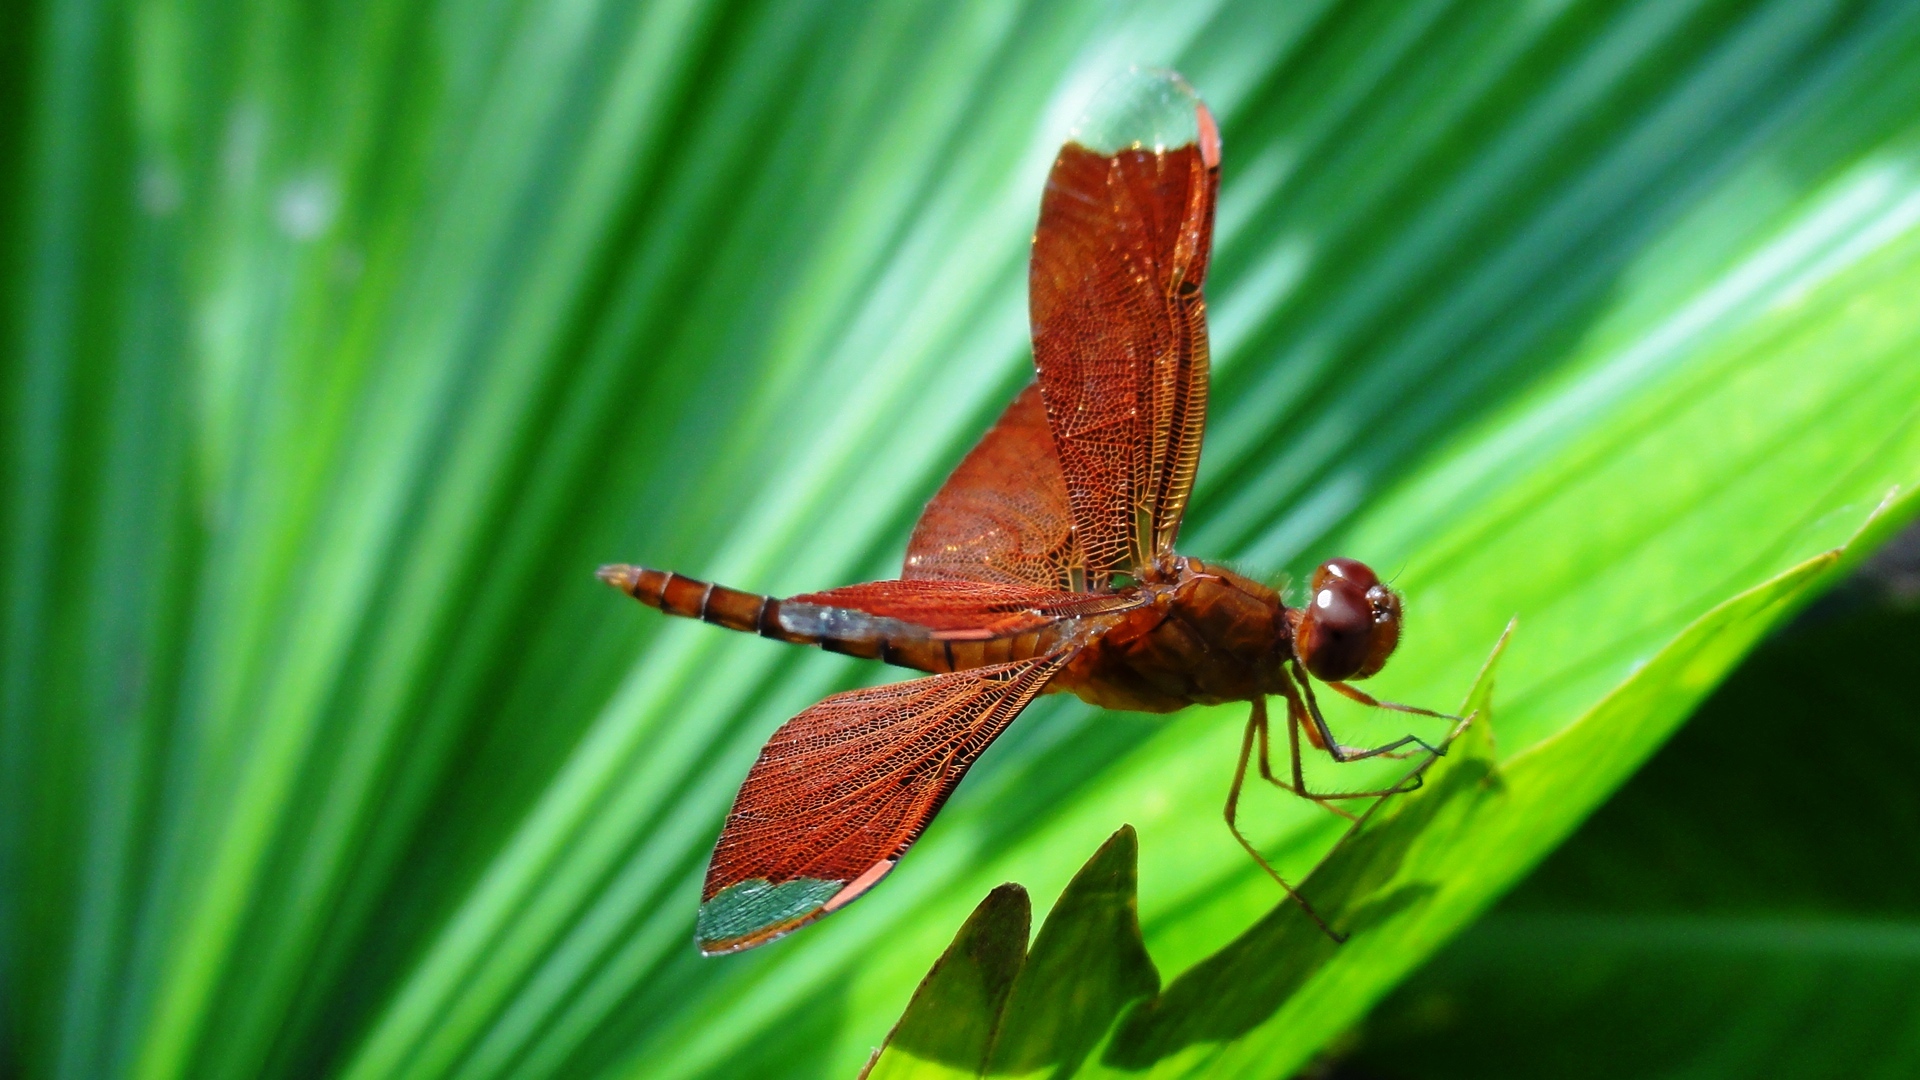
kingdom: Animalia
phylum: Arthropoda
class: Insecta
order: Odonata
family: Libellulidae
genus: Neurothemis
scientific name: Neurothemis fulvia
